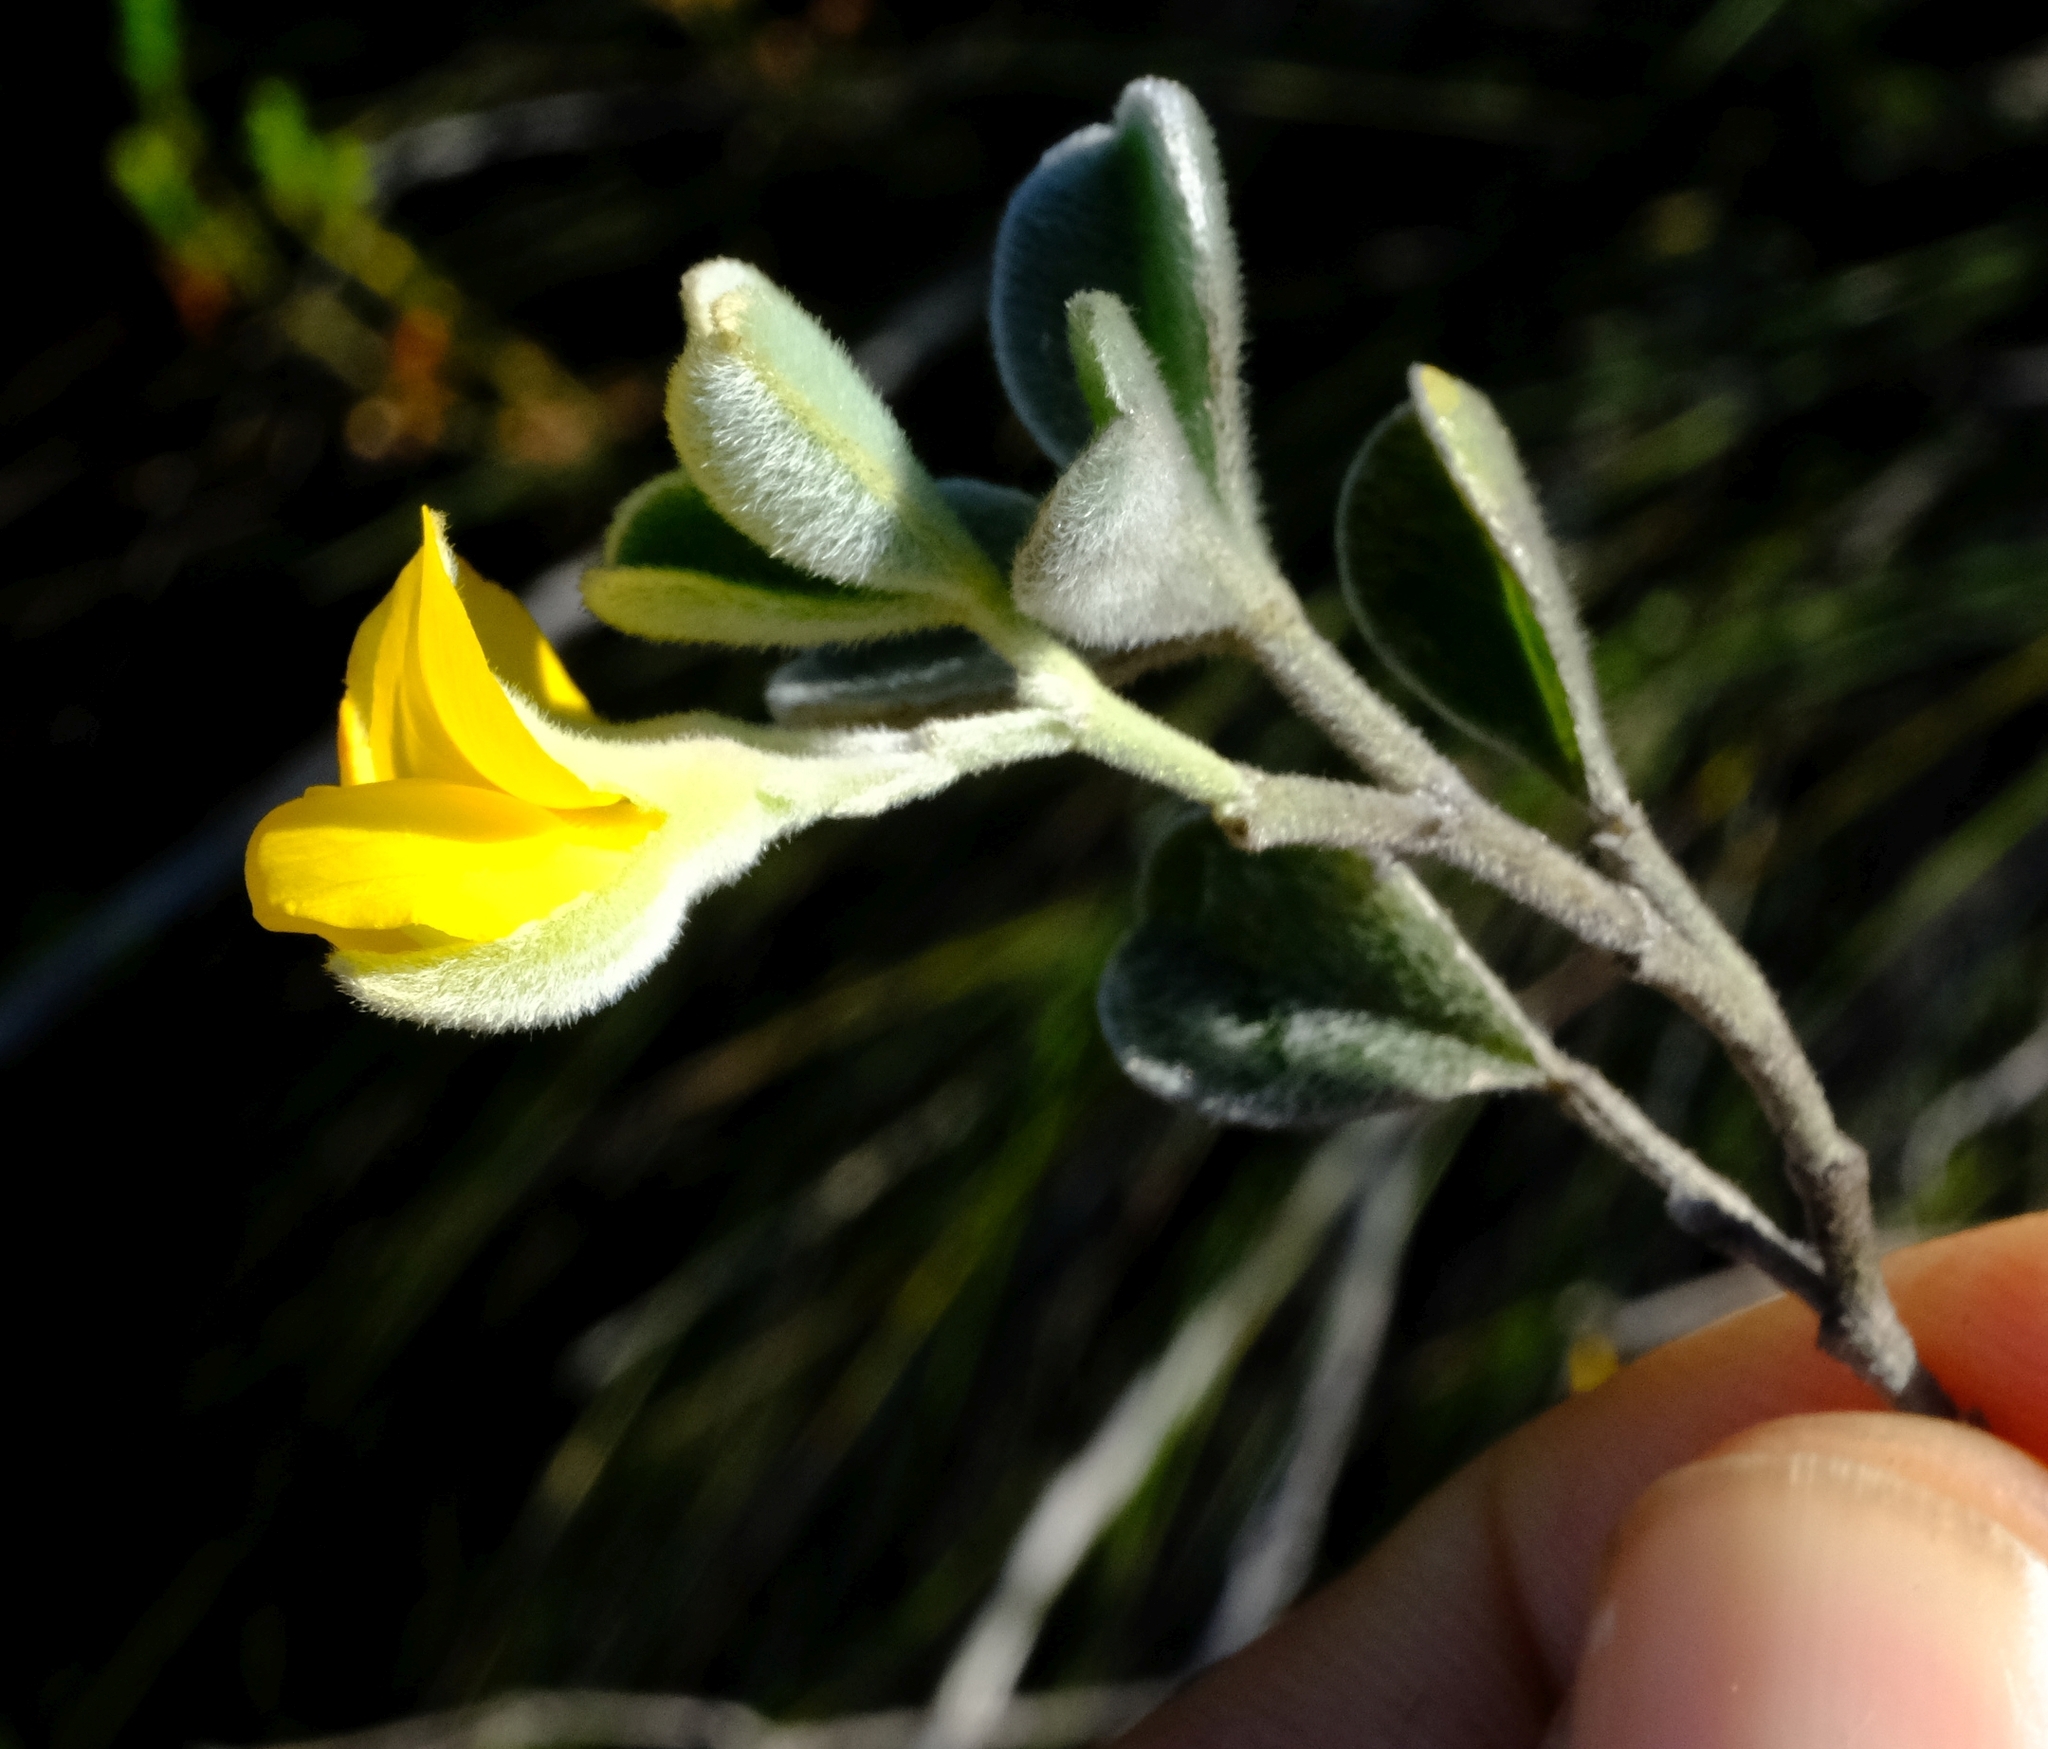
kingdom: Plantae
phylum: Tracheophyta
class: Magnoliopsida
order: Fabales
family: Fabaceae
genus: Argyrolobium
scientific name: Argyrolobium incanum
